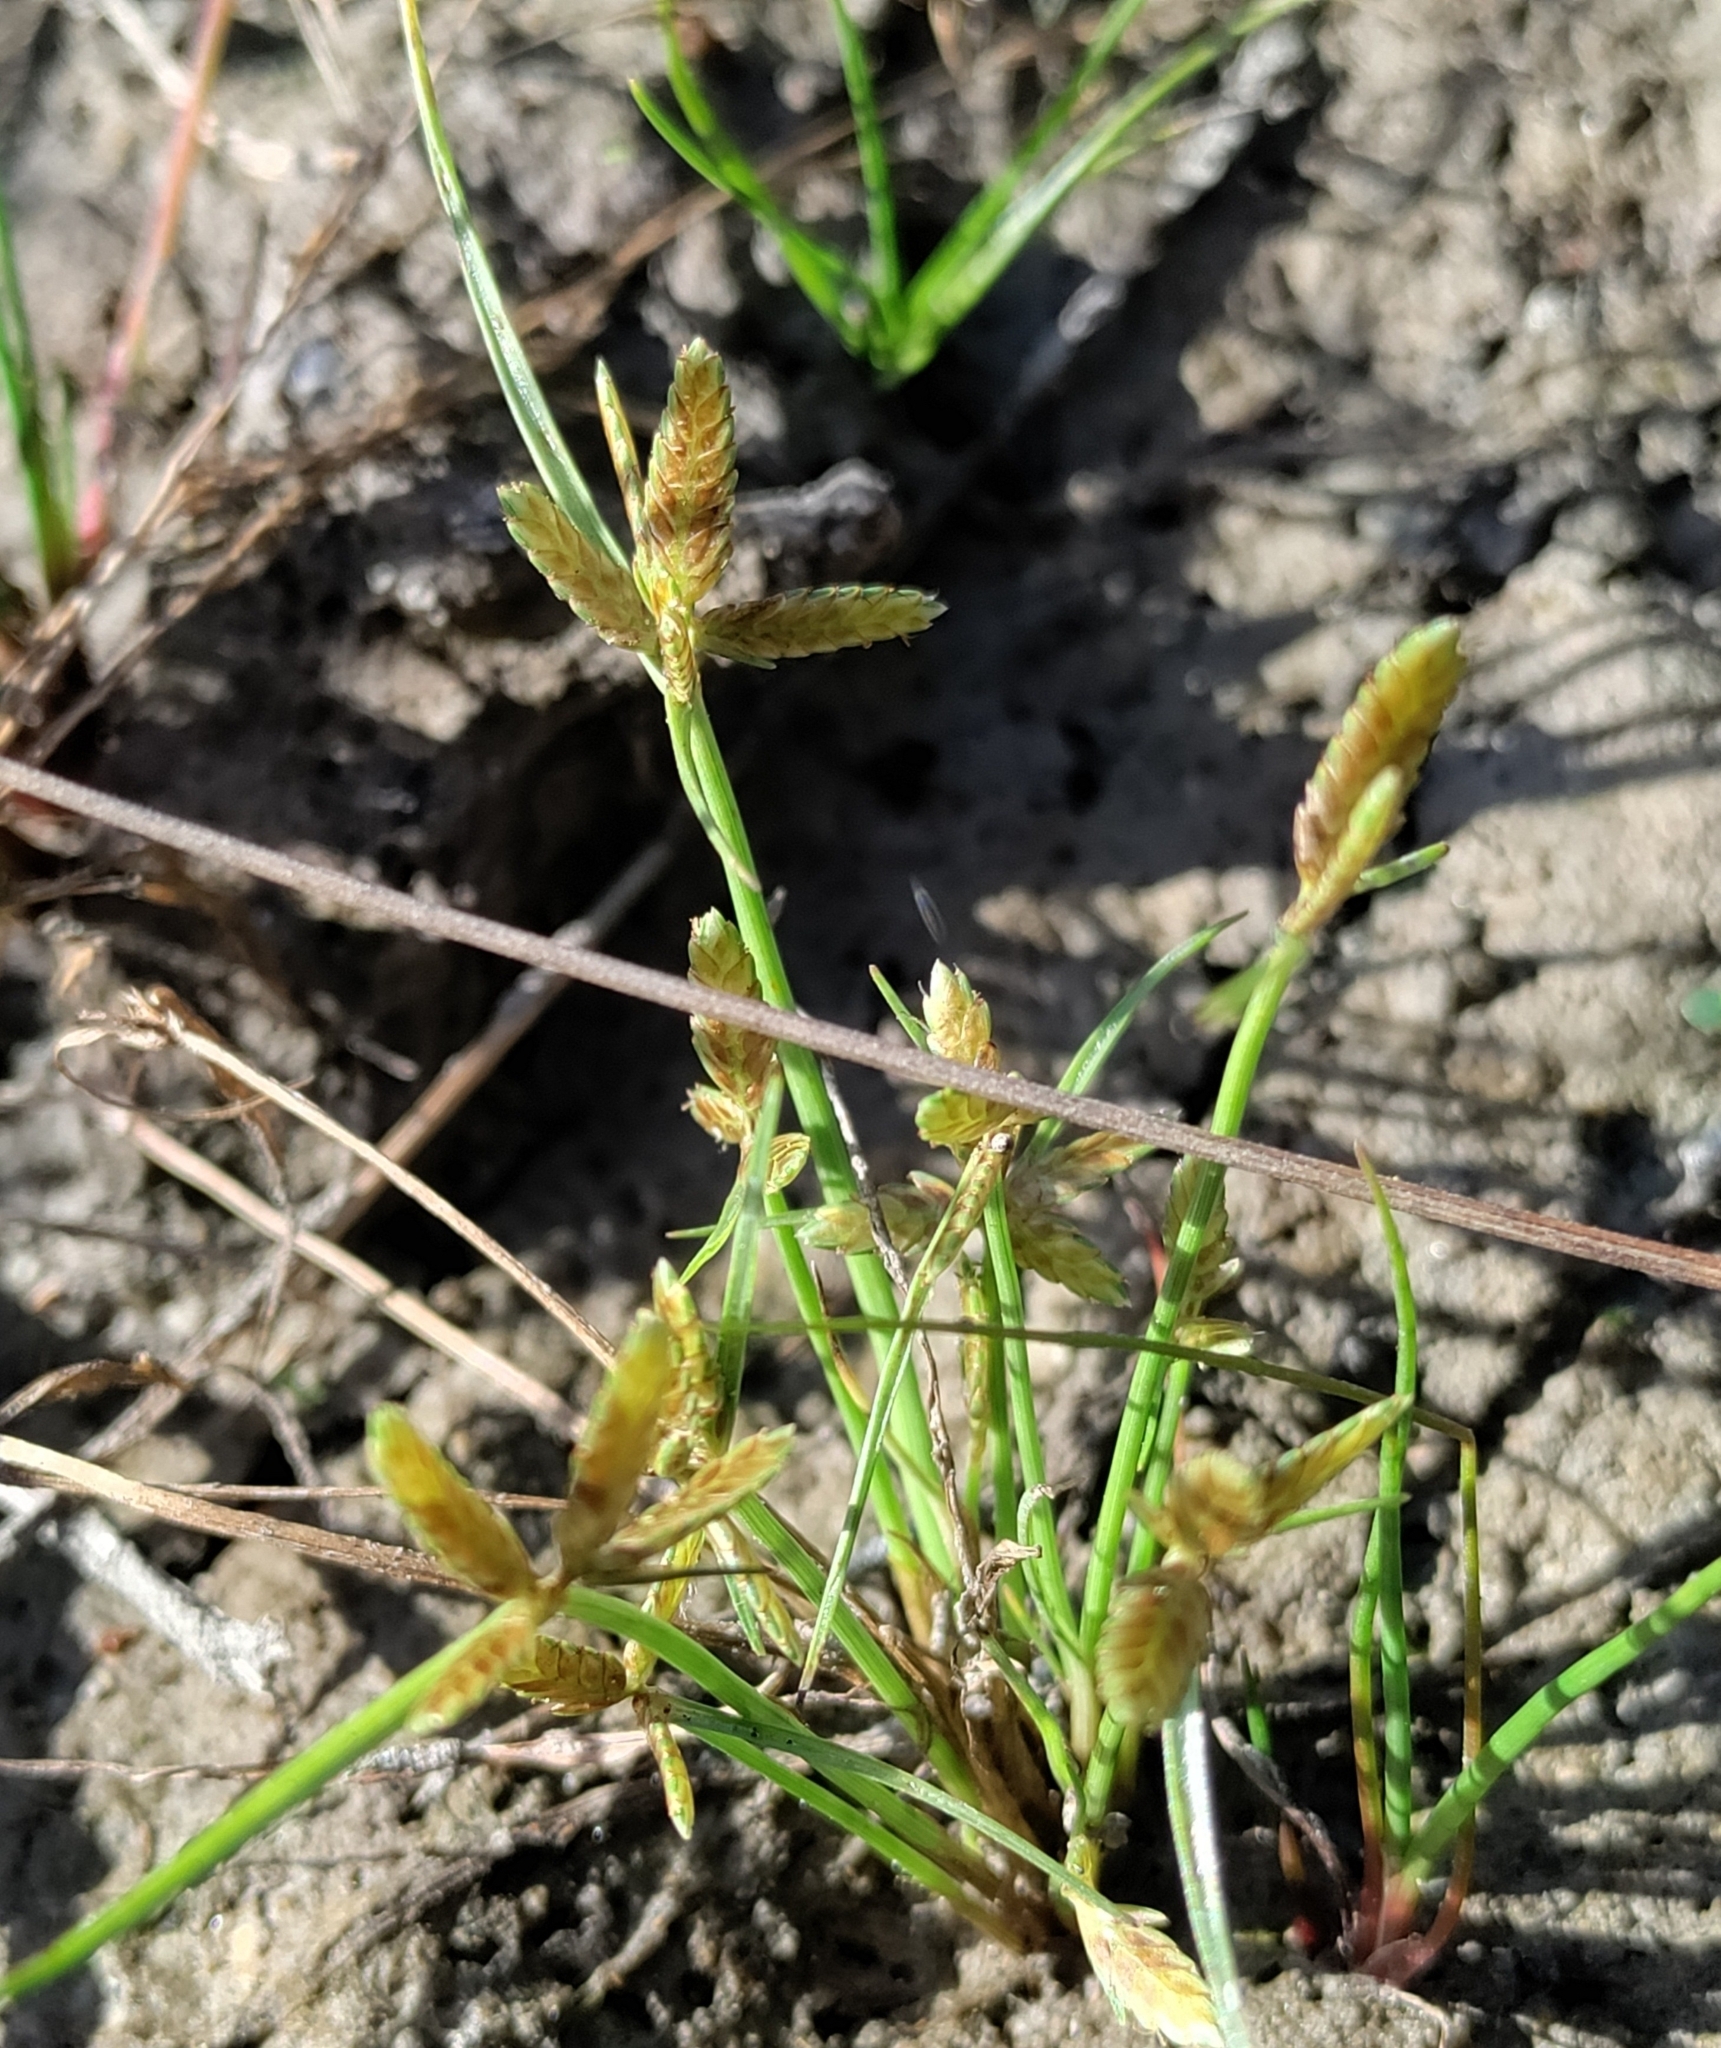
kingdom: Plantae
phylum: Tracheophyta
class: Liliopsida
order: Poales
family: Cyperaceae
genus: Cyperus
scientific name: Cyperus flavescens
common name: Yellow galingale
